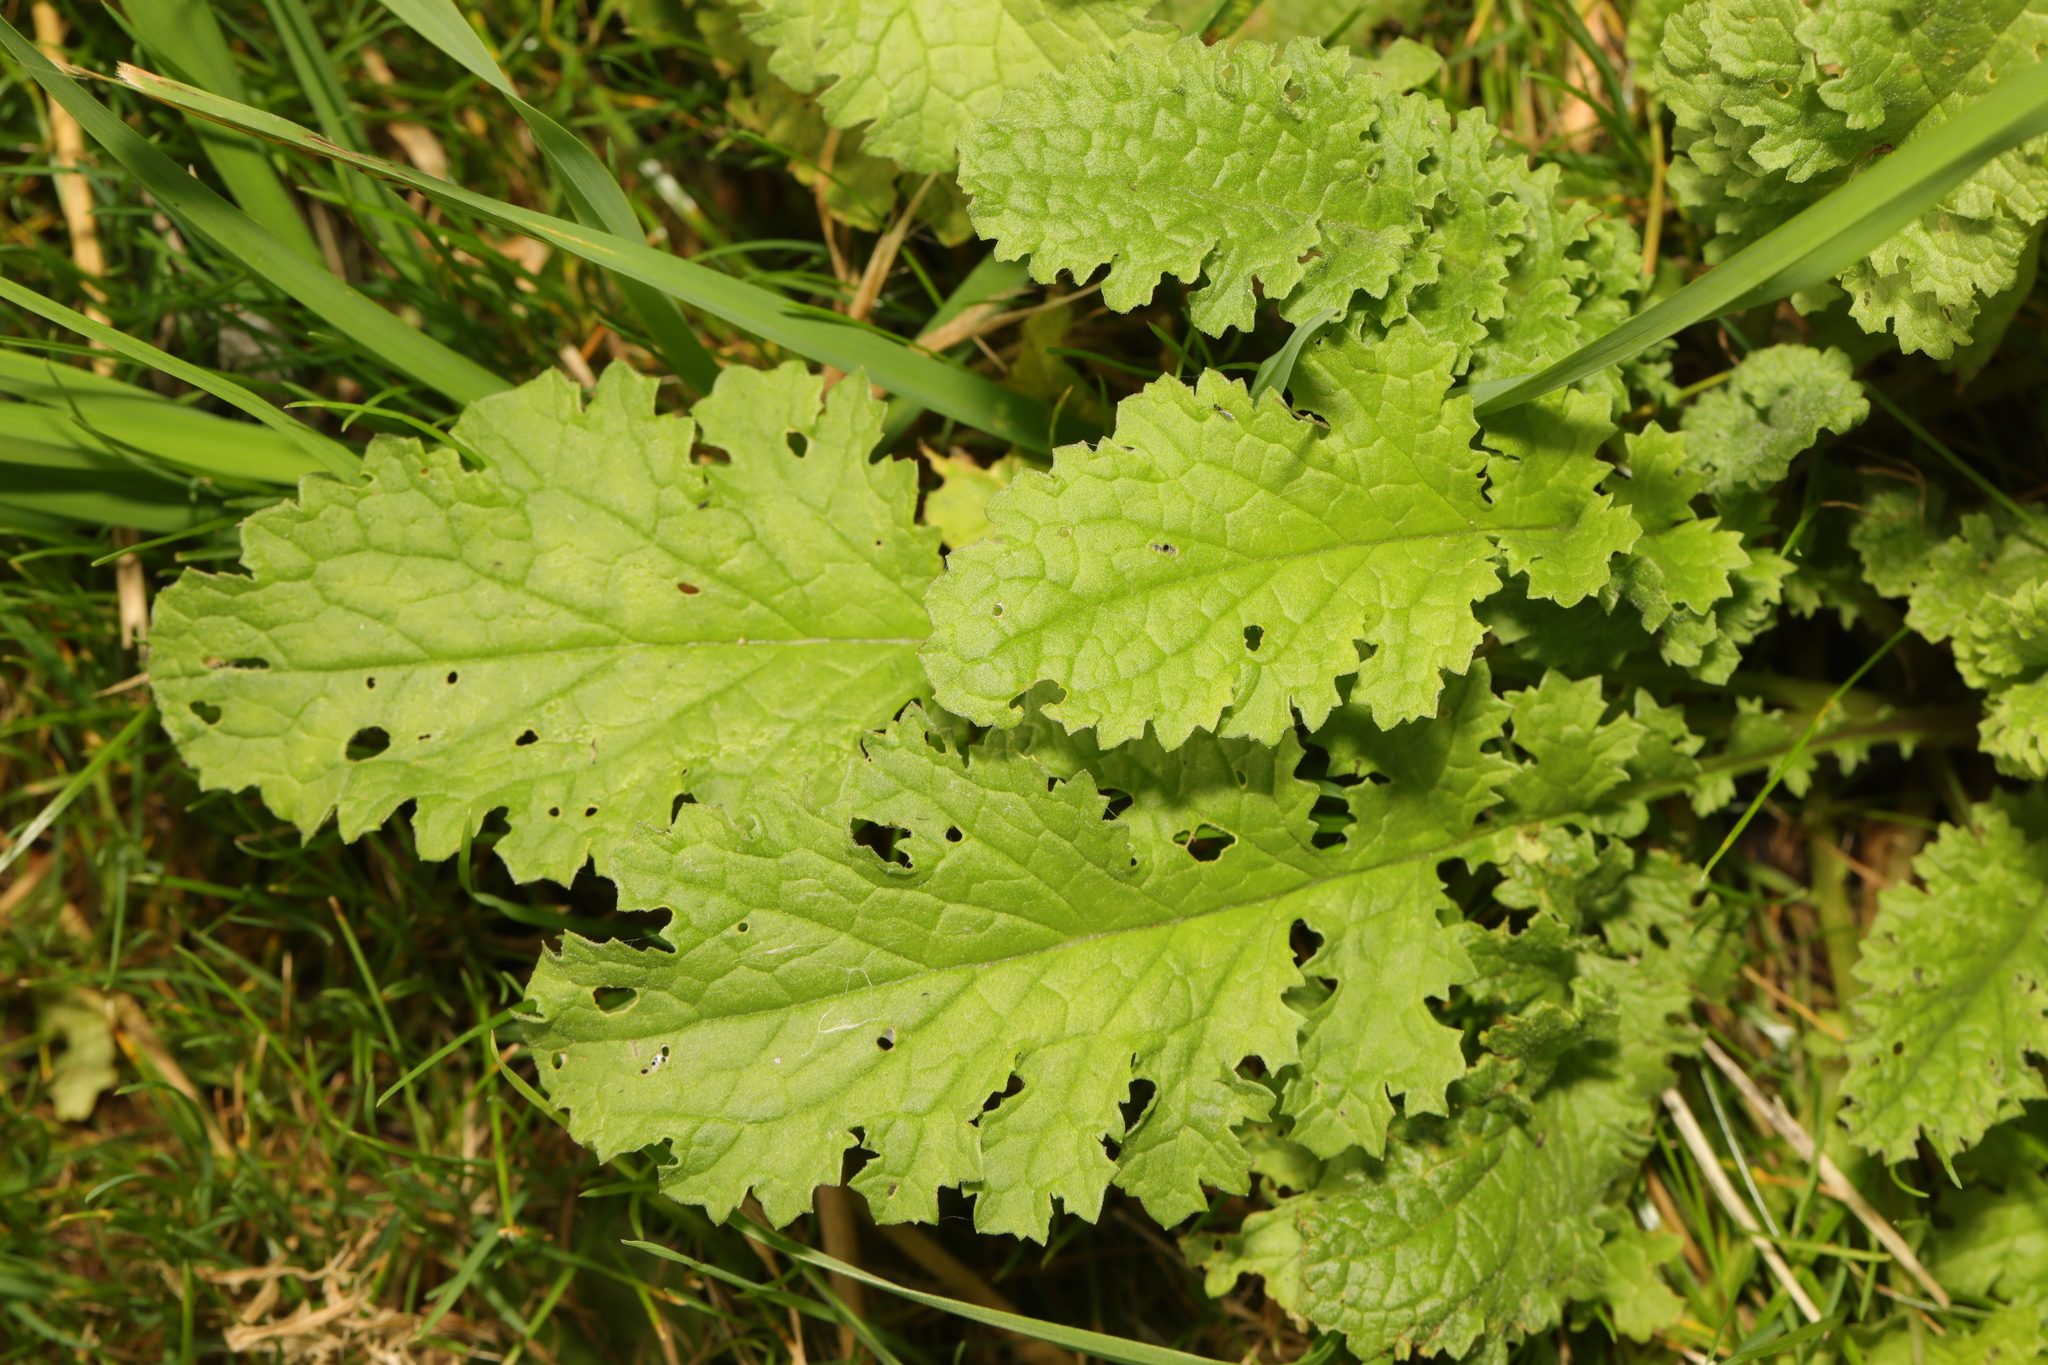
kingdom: Plantae
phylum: Tracheophyta
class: Magnoliopsida
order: Asterales
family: Asteraceae
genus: Jacobaea
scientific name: Jacobaea vulgaris
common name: Stinking willie
